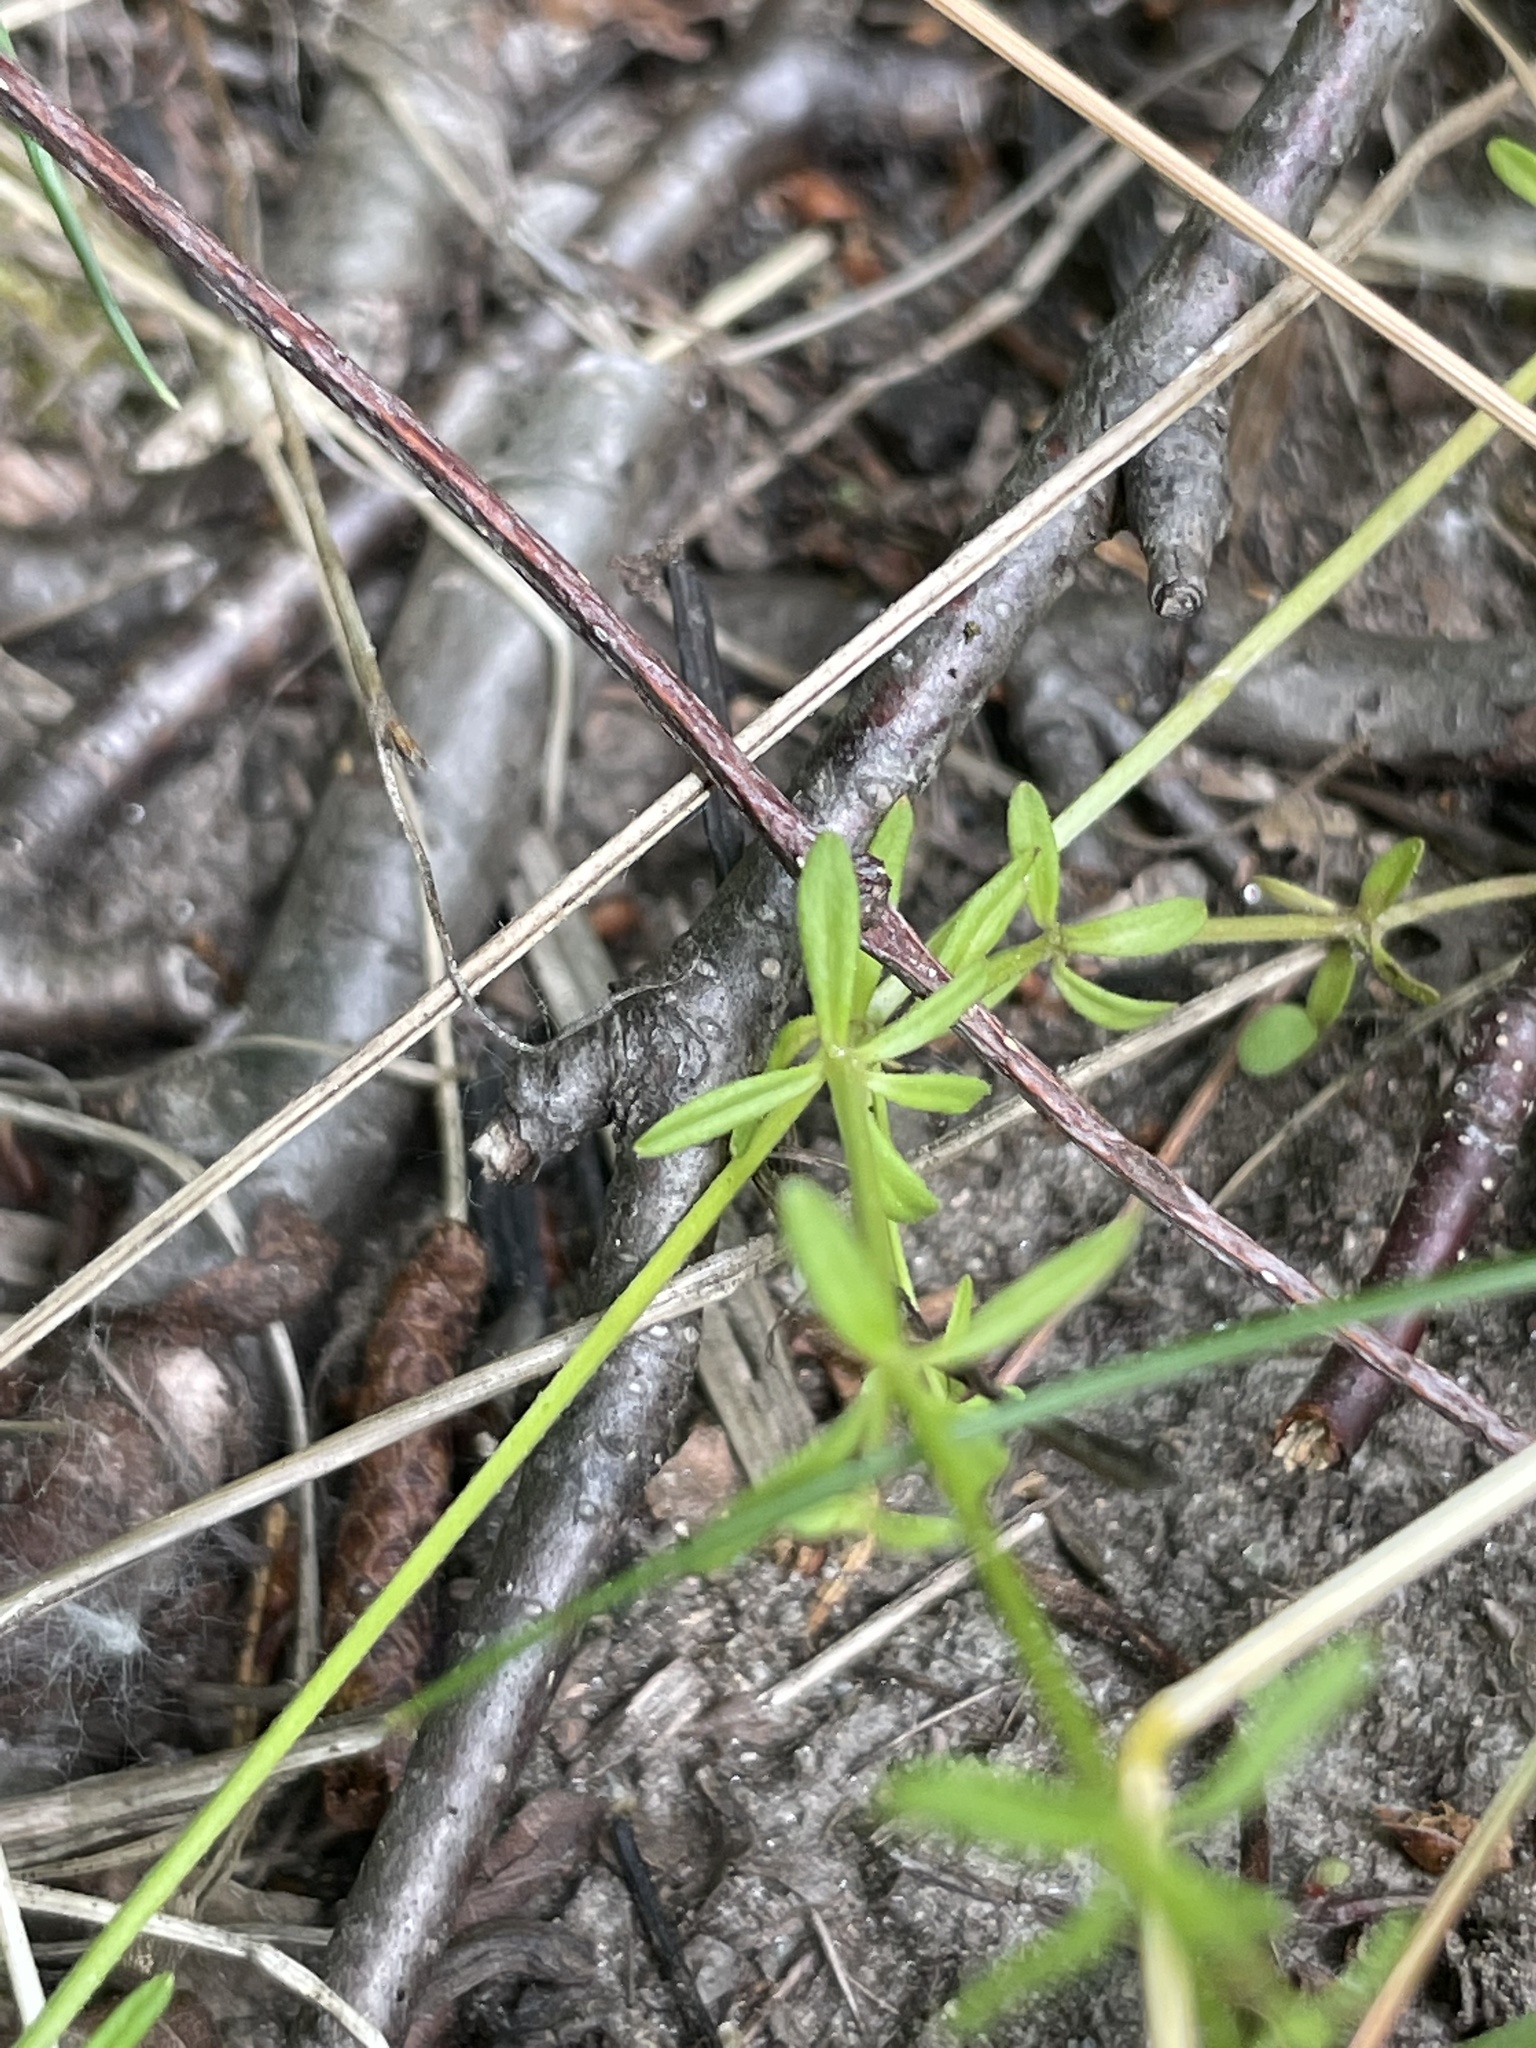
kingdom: Plantae
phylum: Tracheophyta
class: Magnoliopsida
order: Gentianales
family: Rubiaceae
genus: Galium
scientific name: Galium palustre
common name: Common marsh-bedstraw
